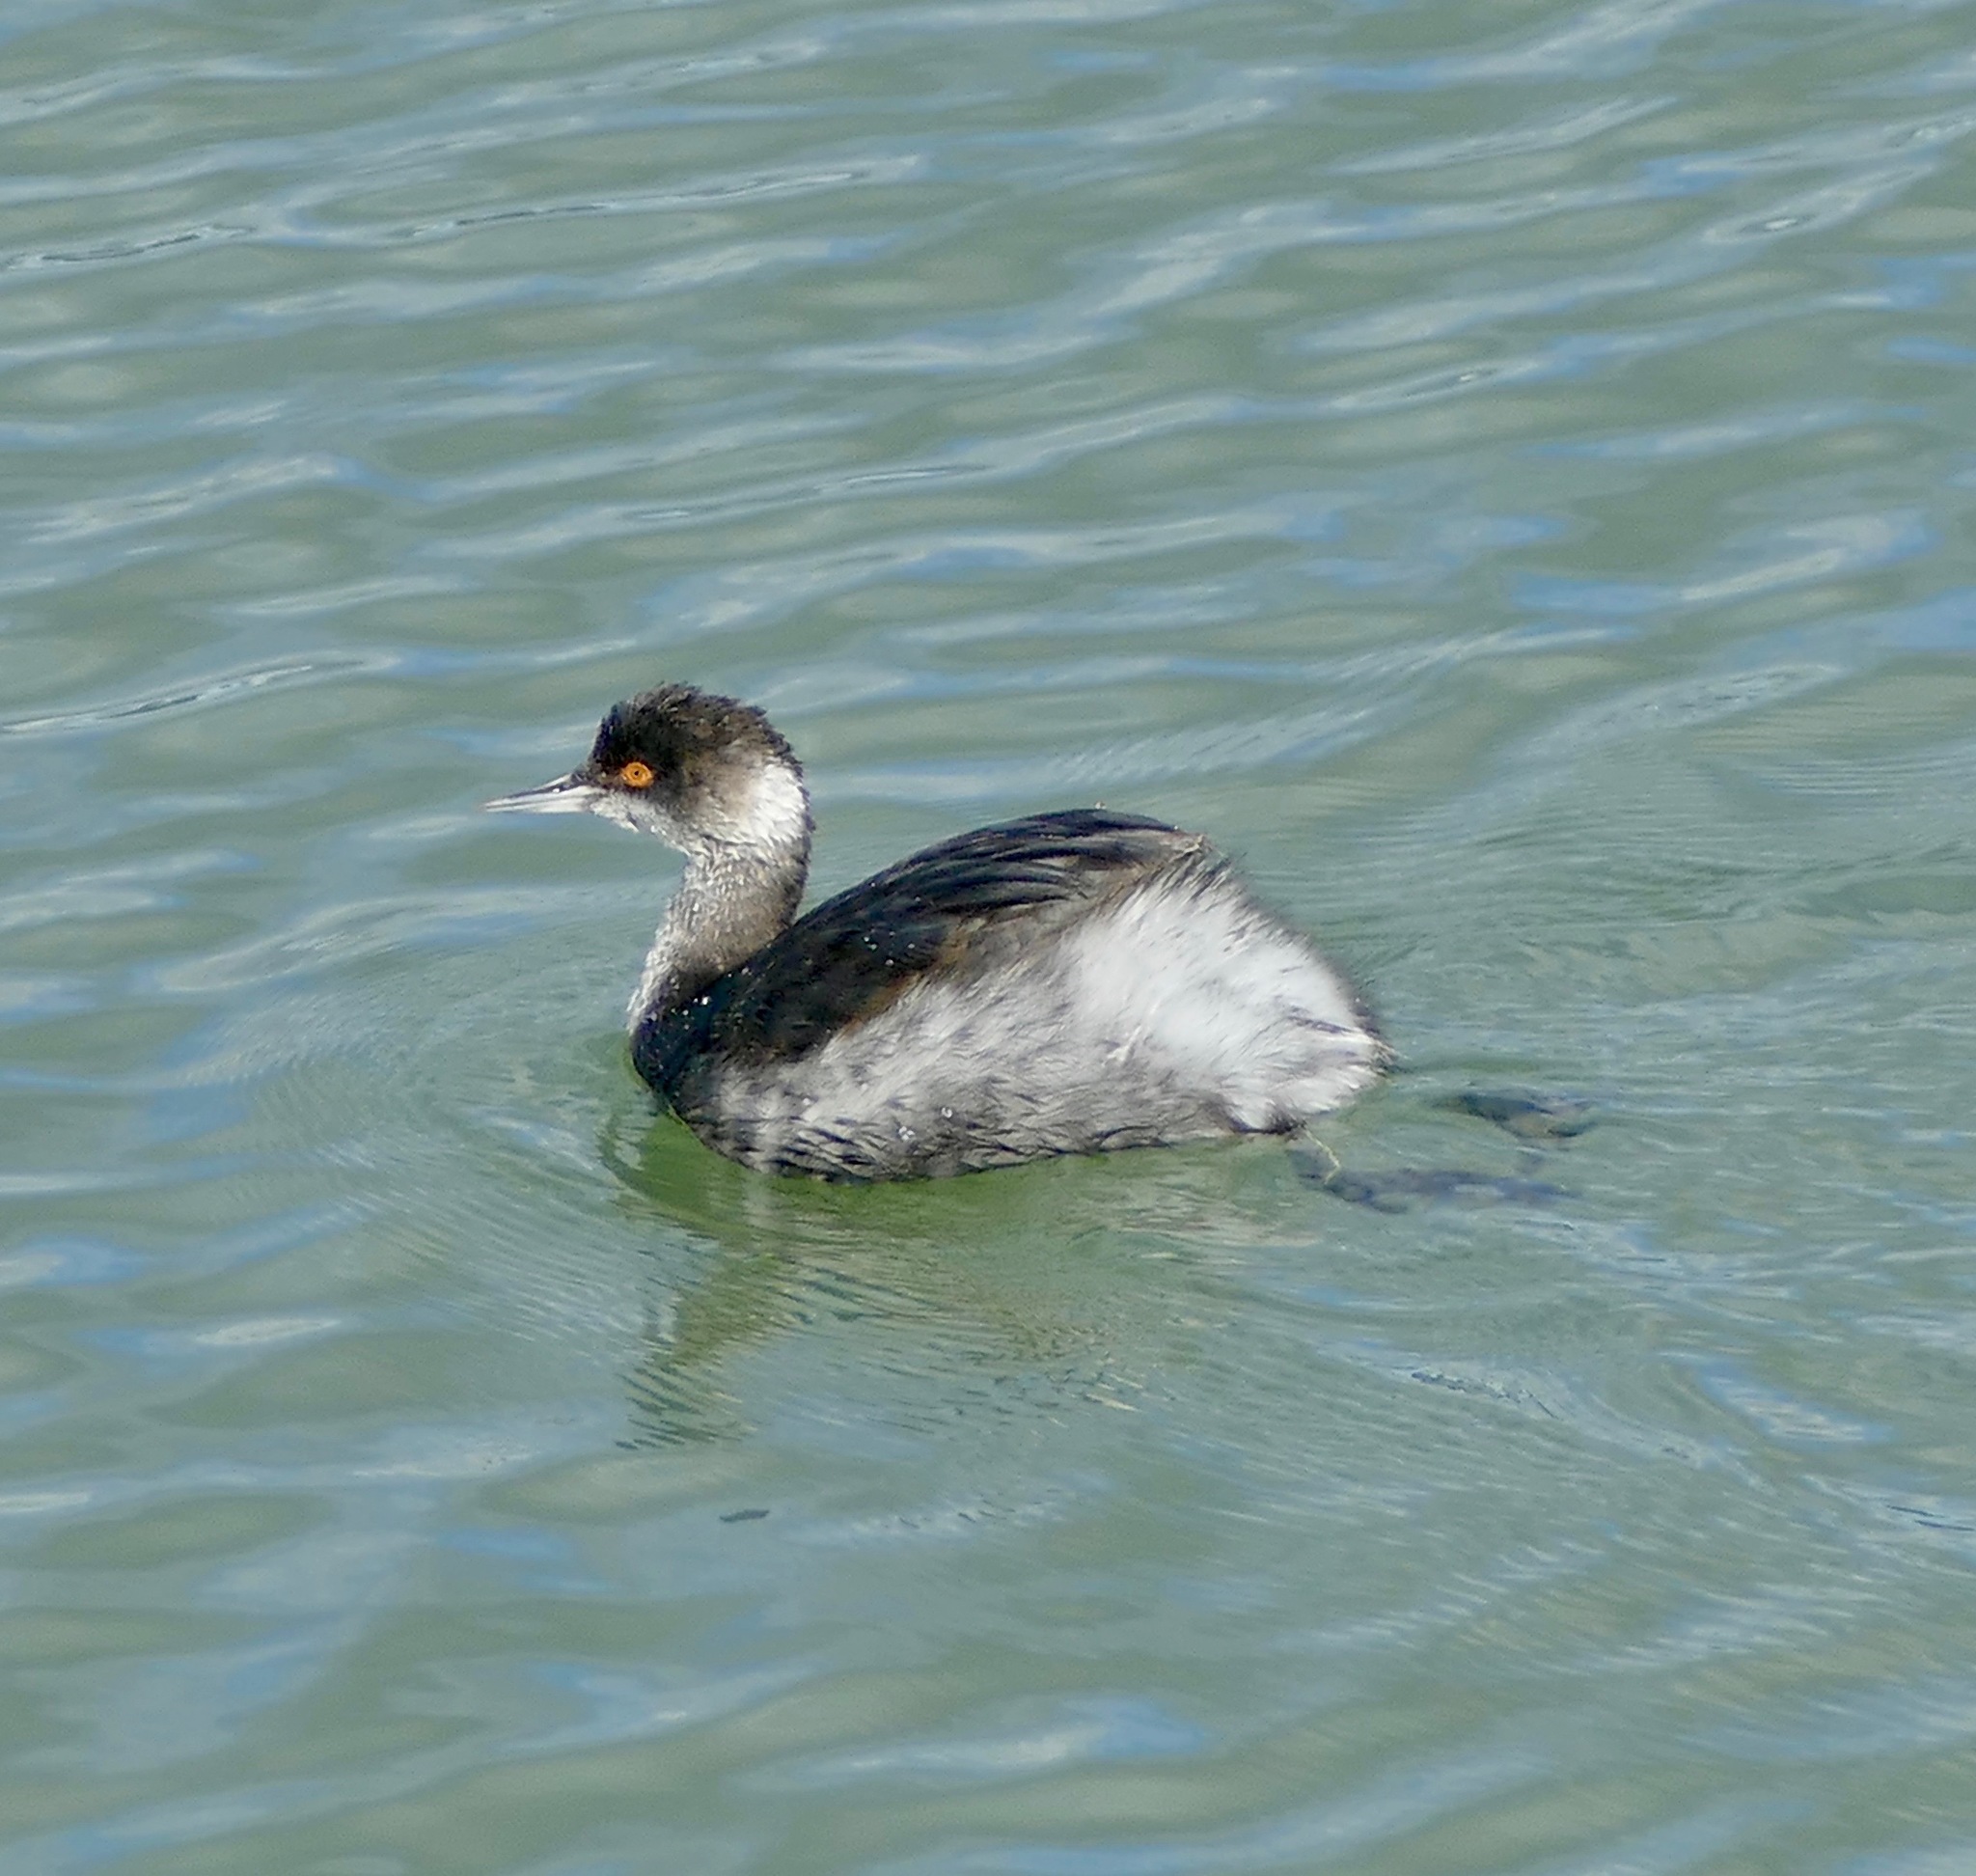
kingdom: Animalia
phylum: Chordata
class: Aves
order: Podicipediformes
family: Podicipedidae
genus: Podiceps
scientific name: Podiceps nigricollis
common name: Black-necked grebe
